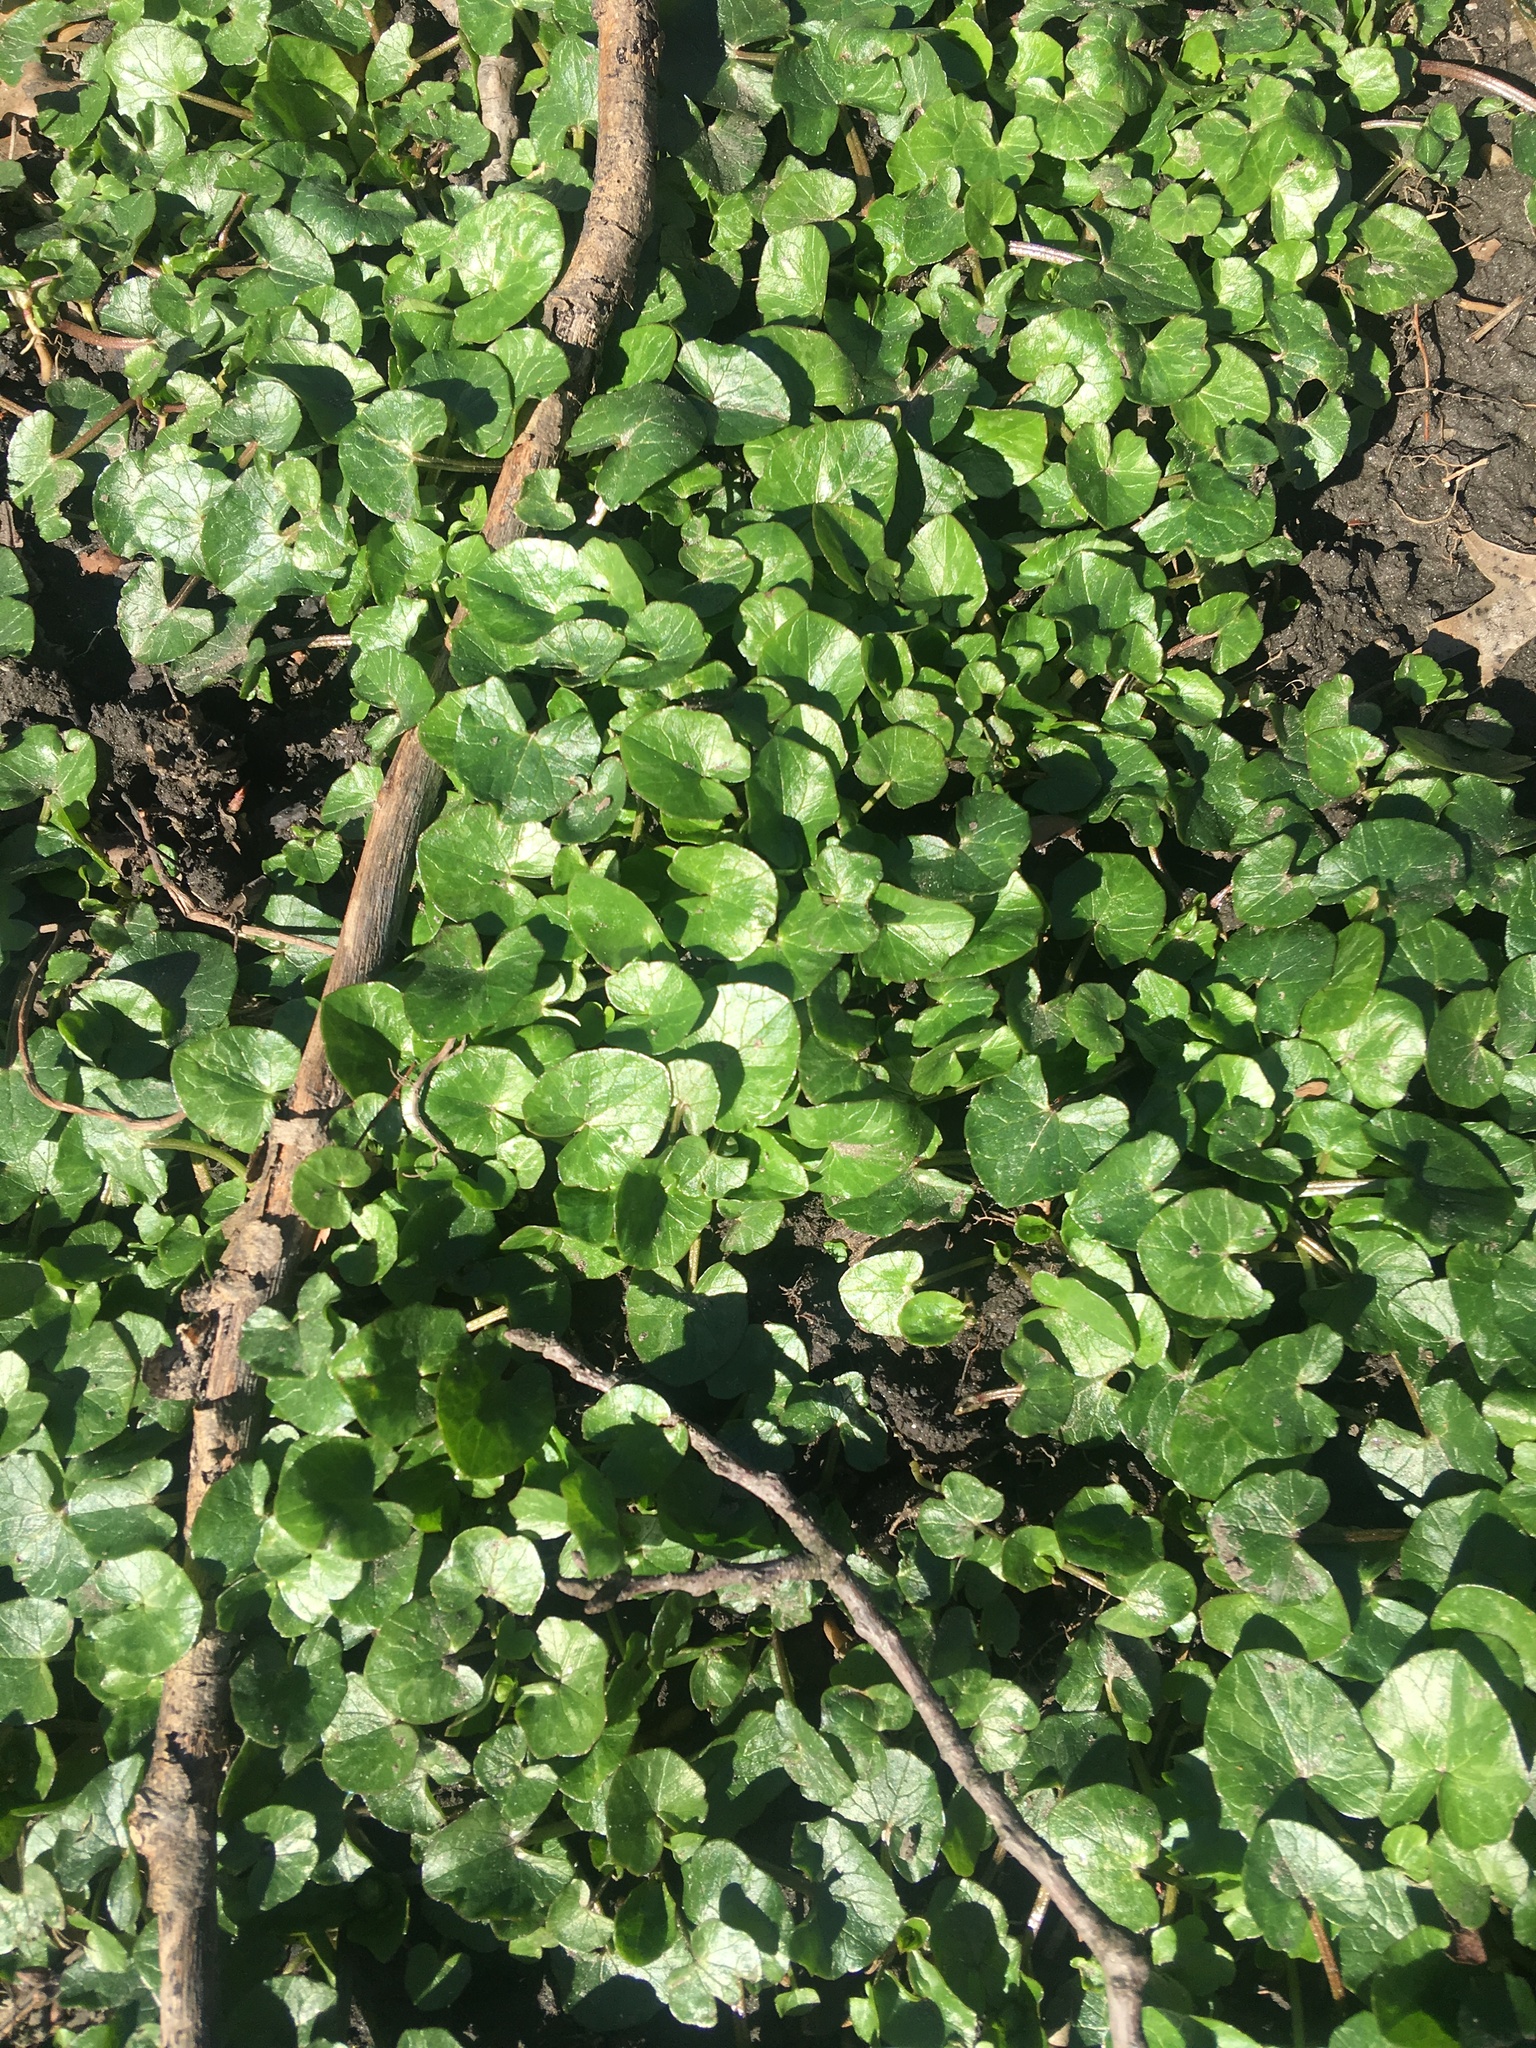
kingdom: Plantae
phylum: Tracheophyta
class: Magnoliopsida
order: Ranunculales
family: Ranunculaceae
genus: Ficaria
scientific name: Ficaria verna
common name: Lesser celandine
